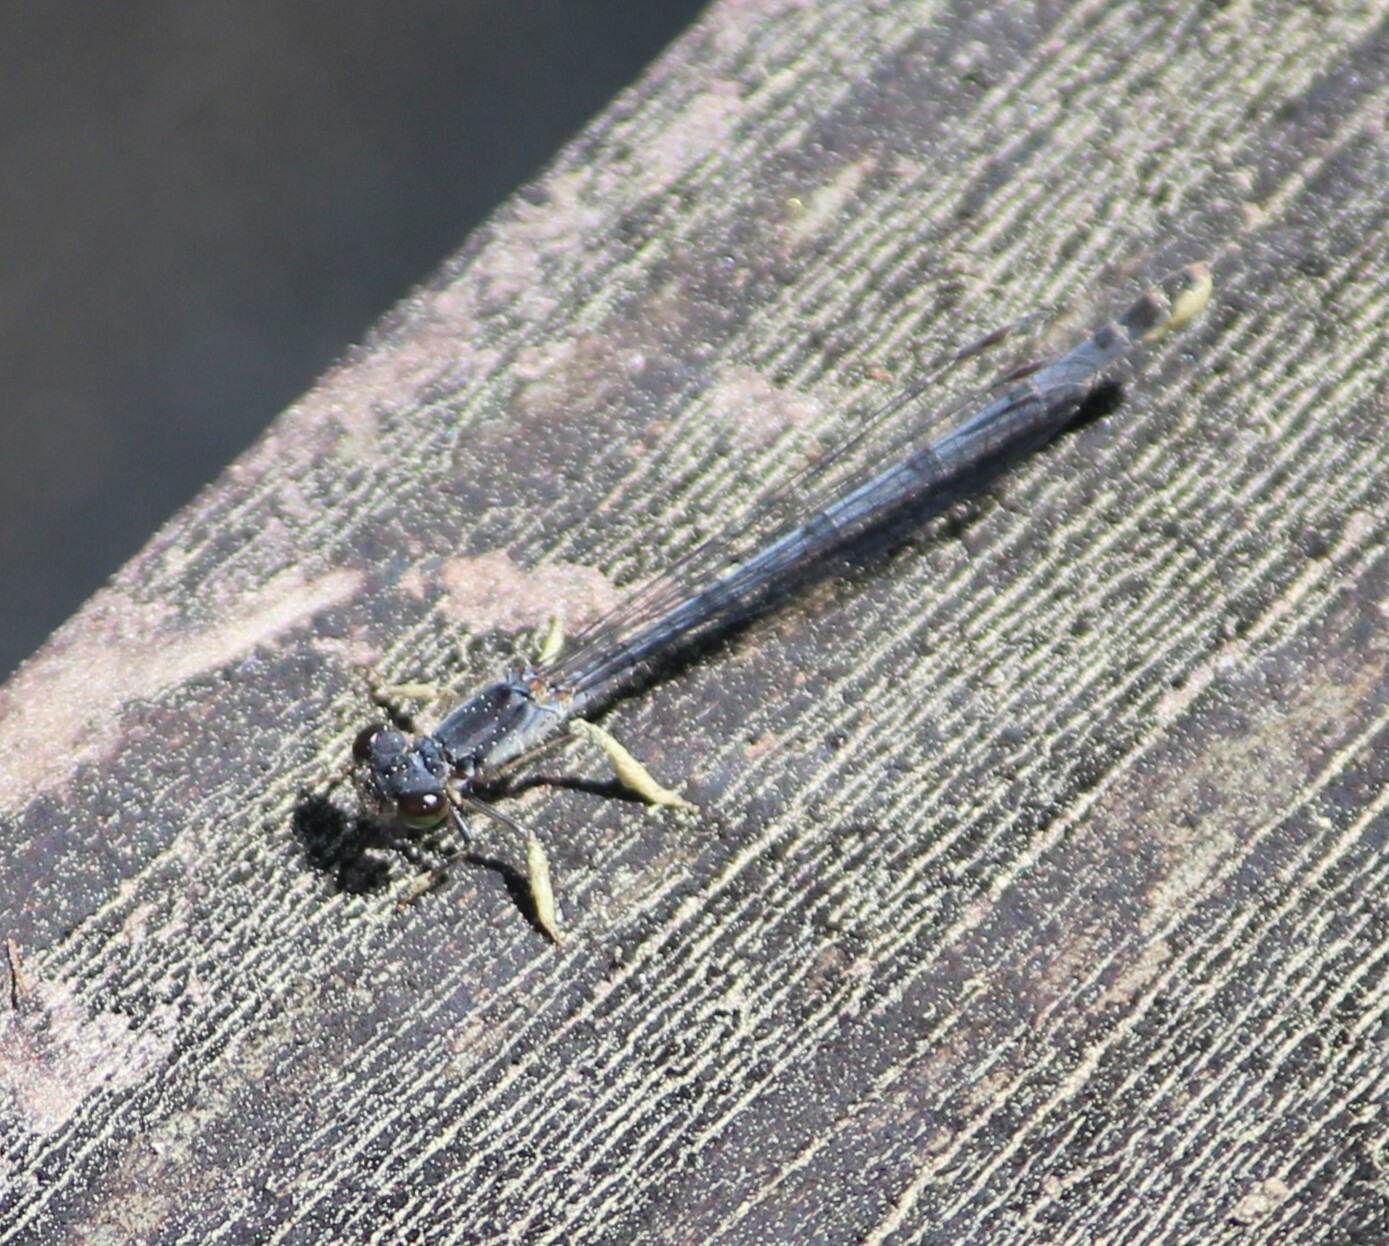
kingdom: Animalia
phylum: Arthropoda
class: Insecta
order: Odonata
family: Coenagrionidae
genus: Ischnura
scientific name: Ischnura posita
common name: Fragile forktail
